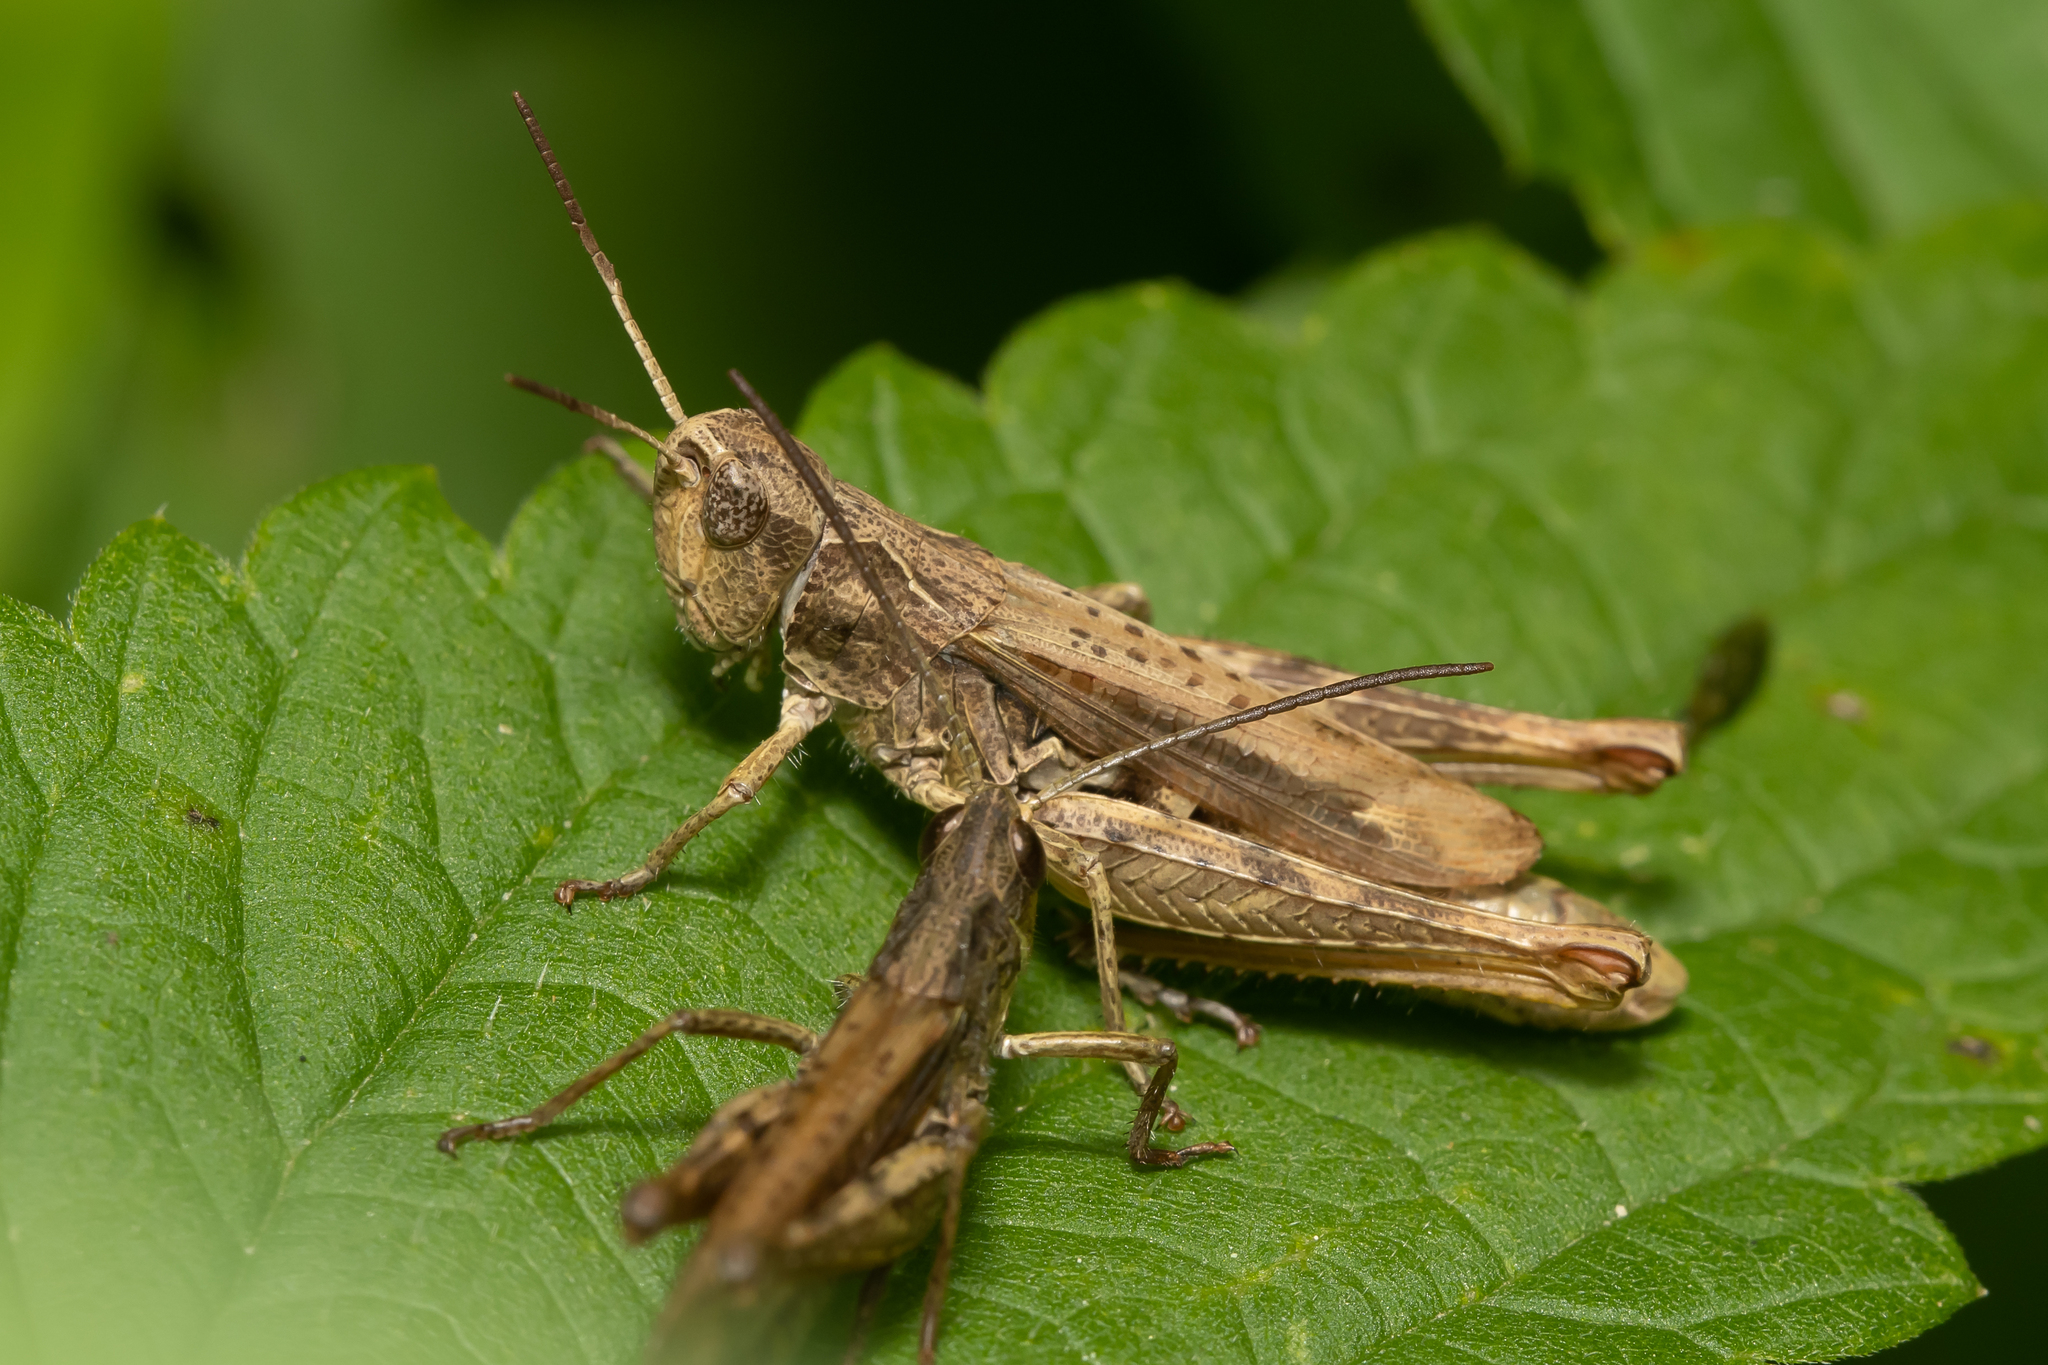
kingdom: Animalia
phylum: Arthropoda
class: Insecta
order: Orthoptera
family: Acrididae
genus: Chorthippus
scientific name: Chorthippus apricarius
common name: Upland field grasshopper
